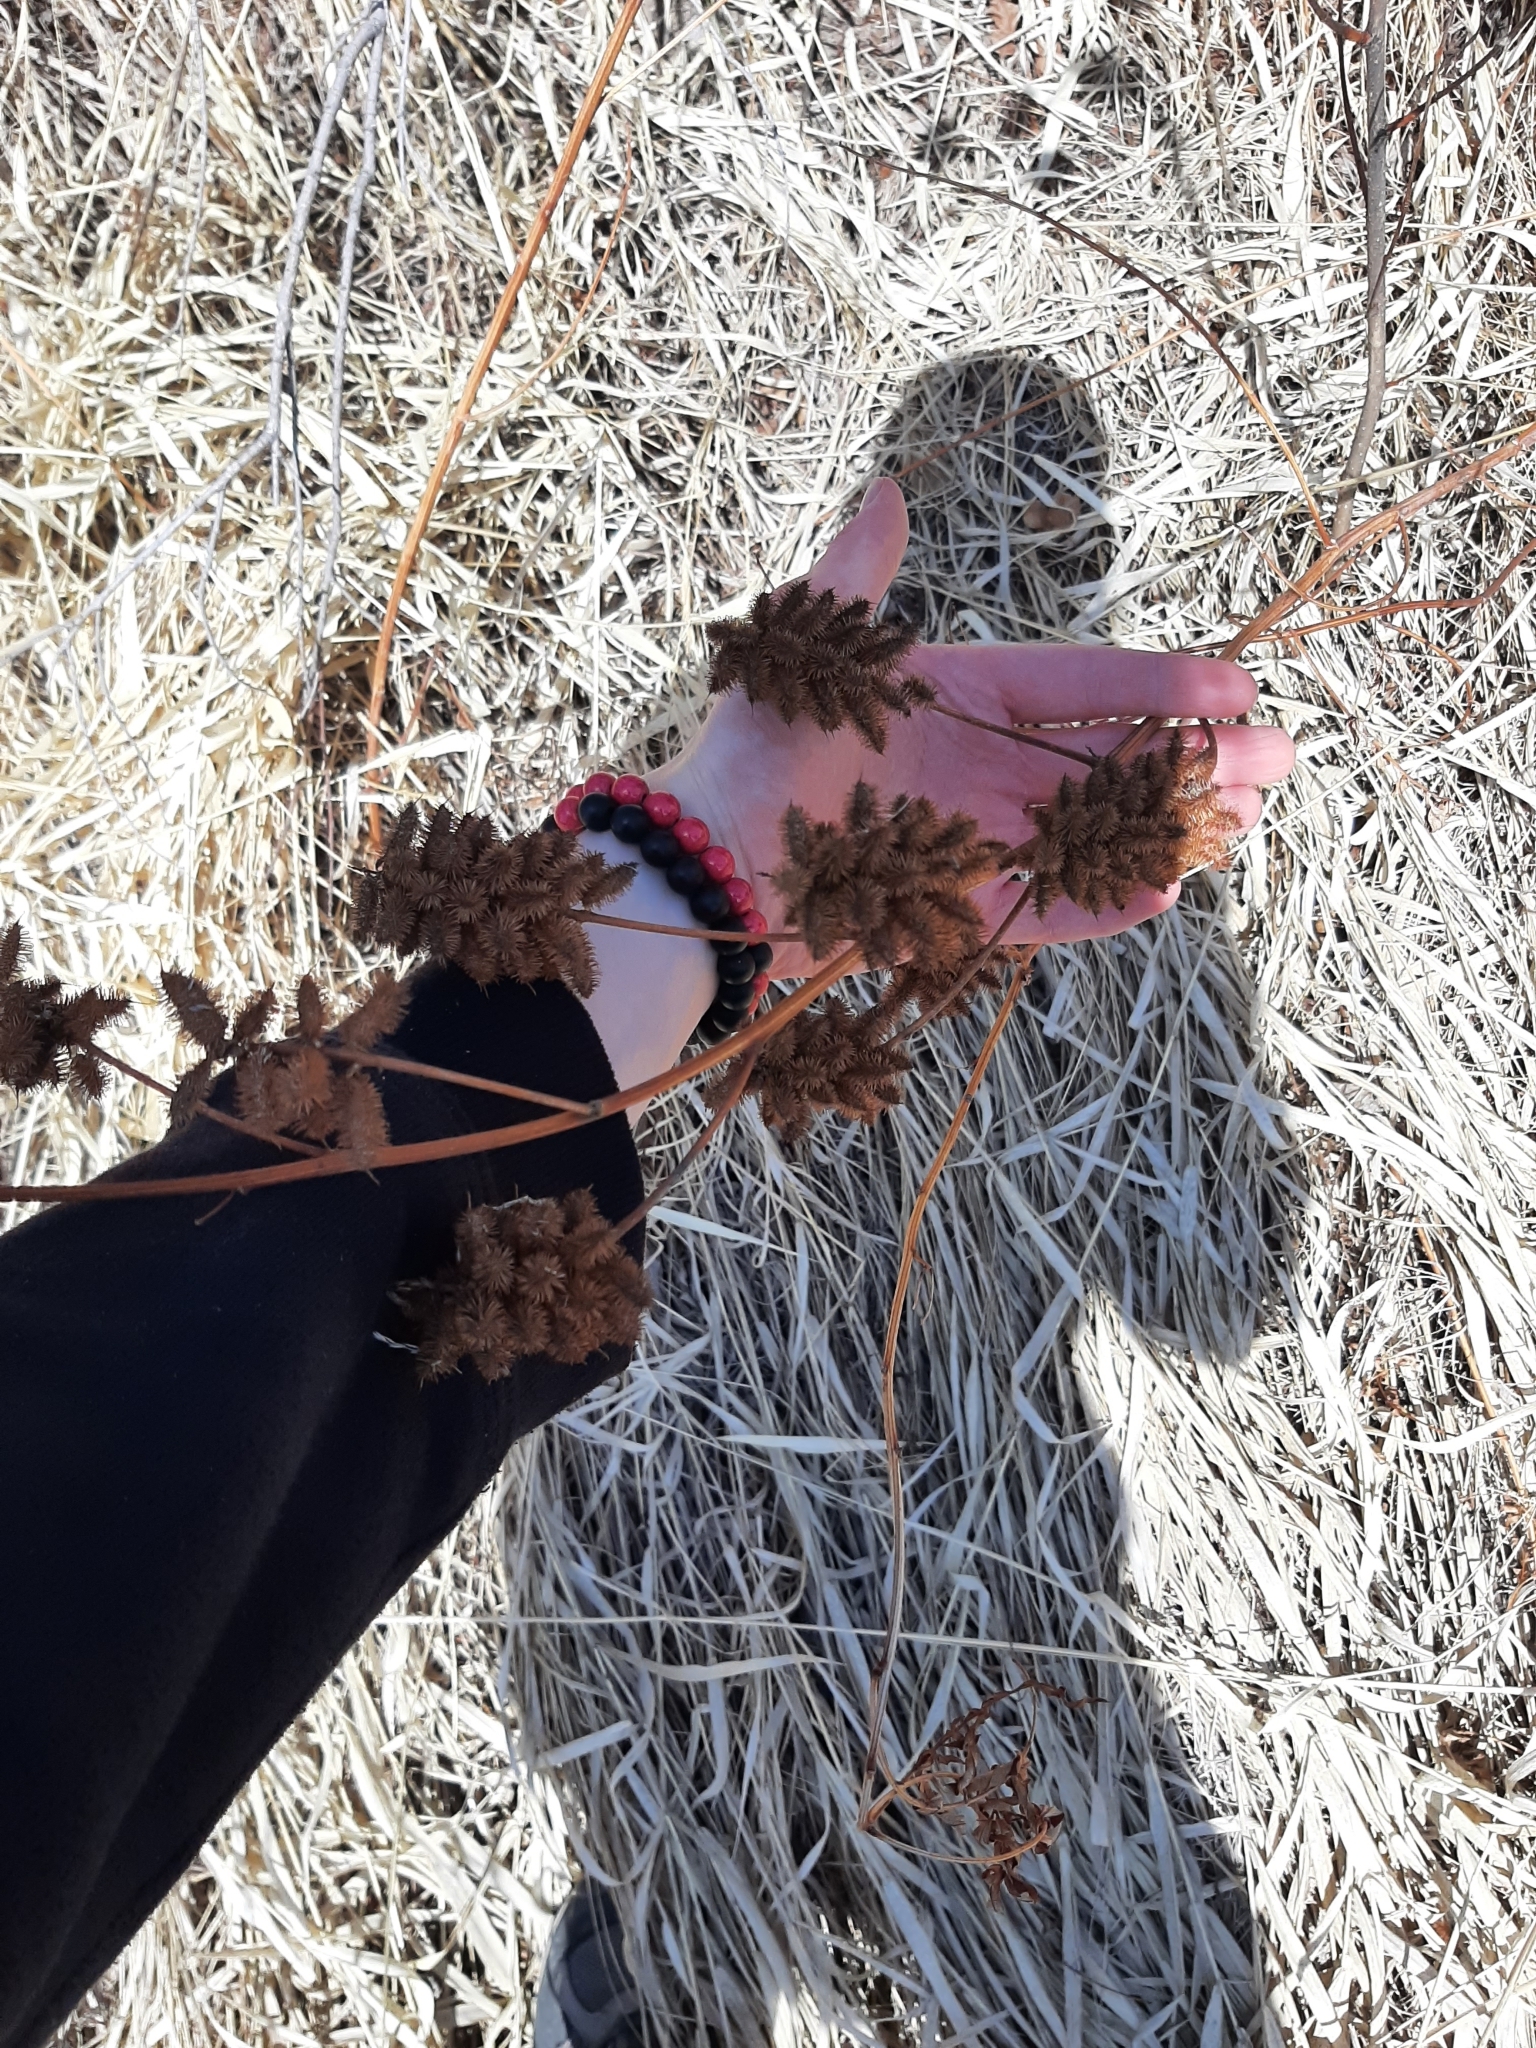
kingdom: Plantae
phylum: Tracheophyta
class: Magnoliopsida
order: Fabales
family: Fabaceae
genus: Glycyrrhiza
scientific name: Glycyrrhiza lepidota
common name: American liquorice
